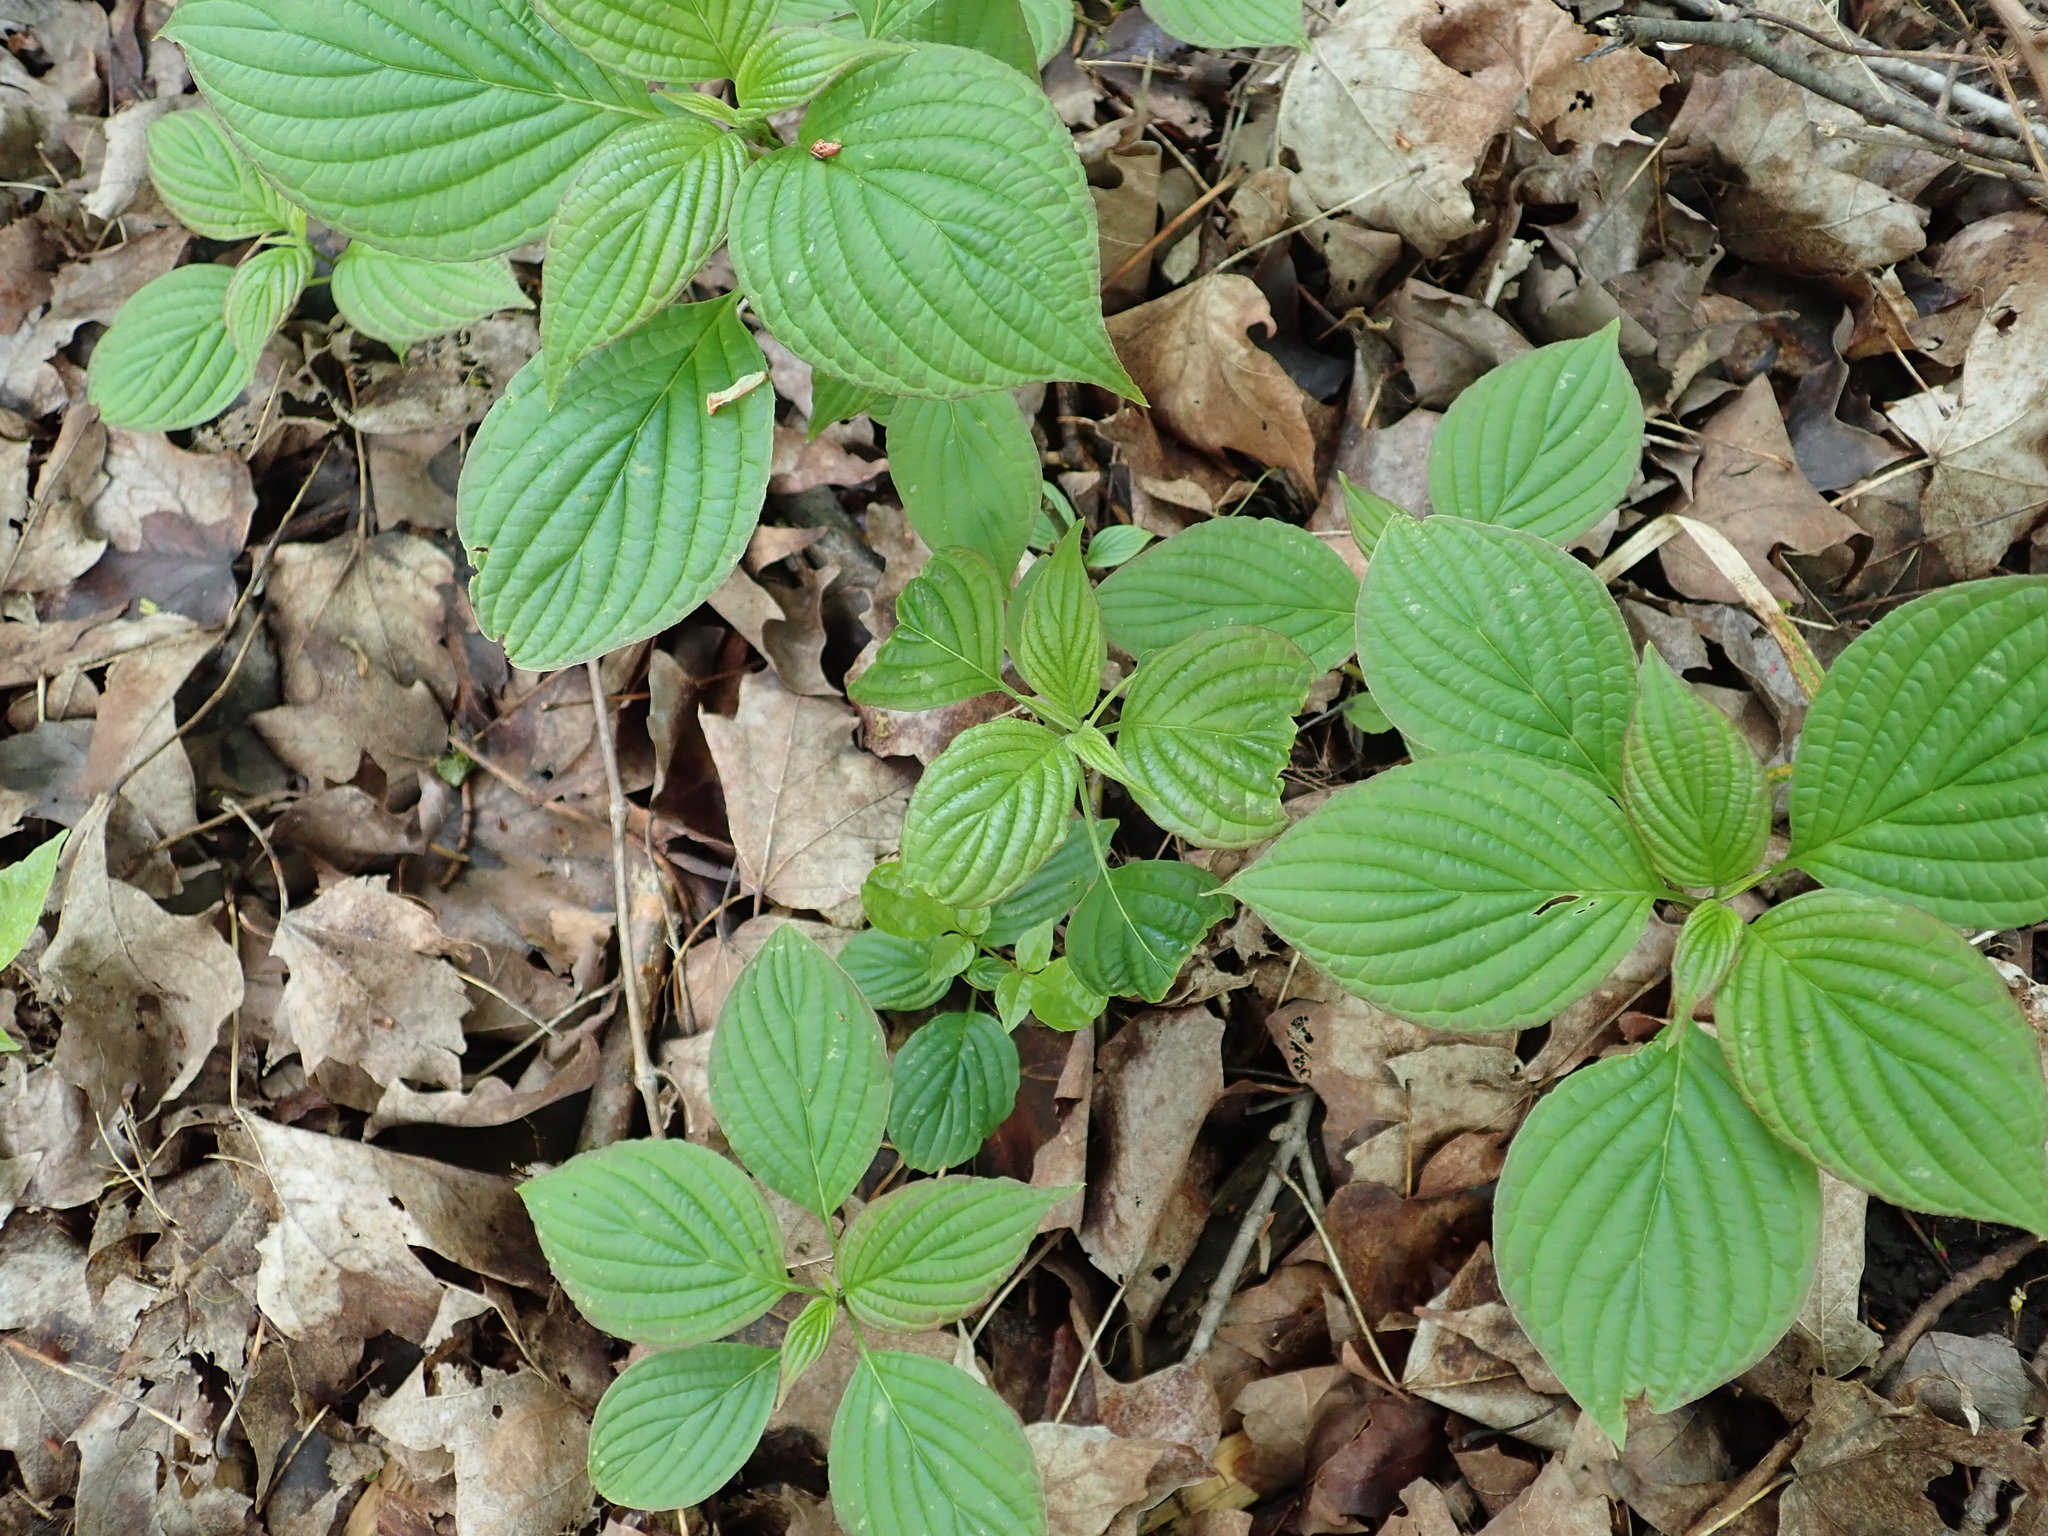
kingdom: Plantae
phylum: Tracheophyta
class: Magnoliopsida
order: Cornales
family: Cornaceae
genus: Cornus
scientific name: Cornus alternifolia
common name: Pagoda dogwood
